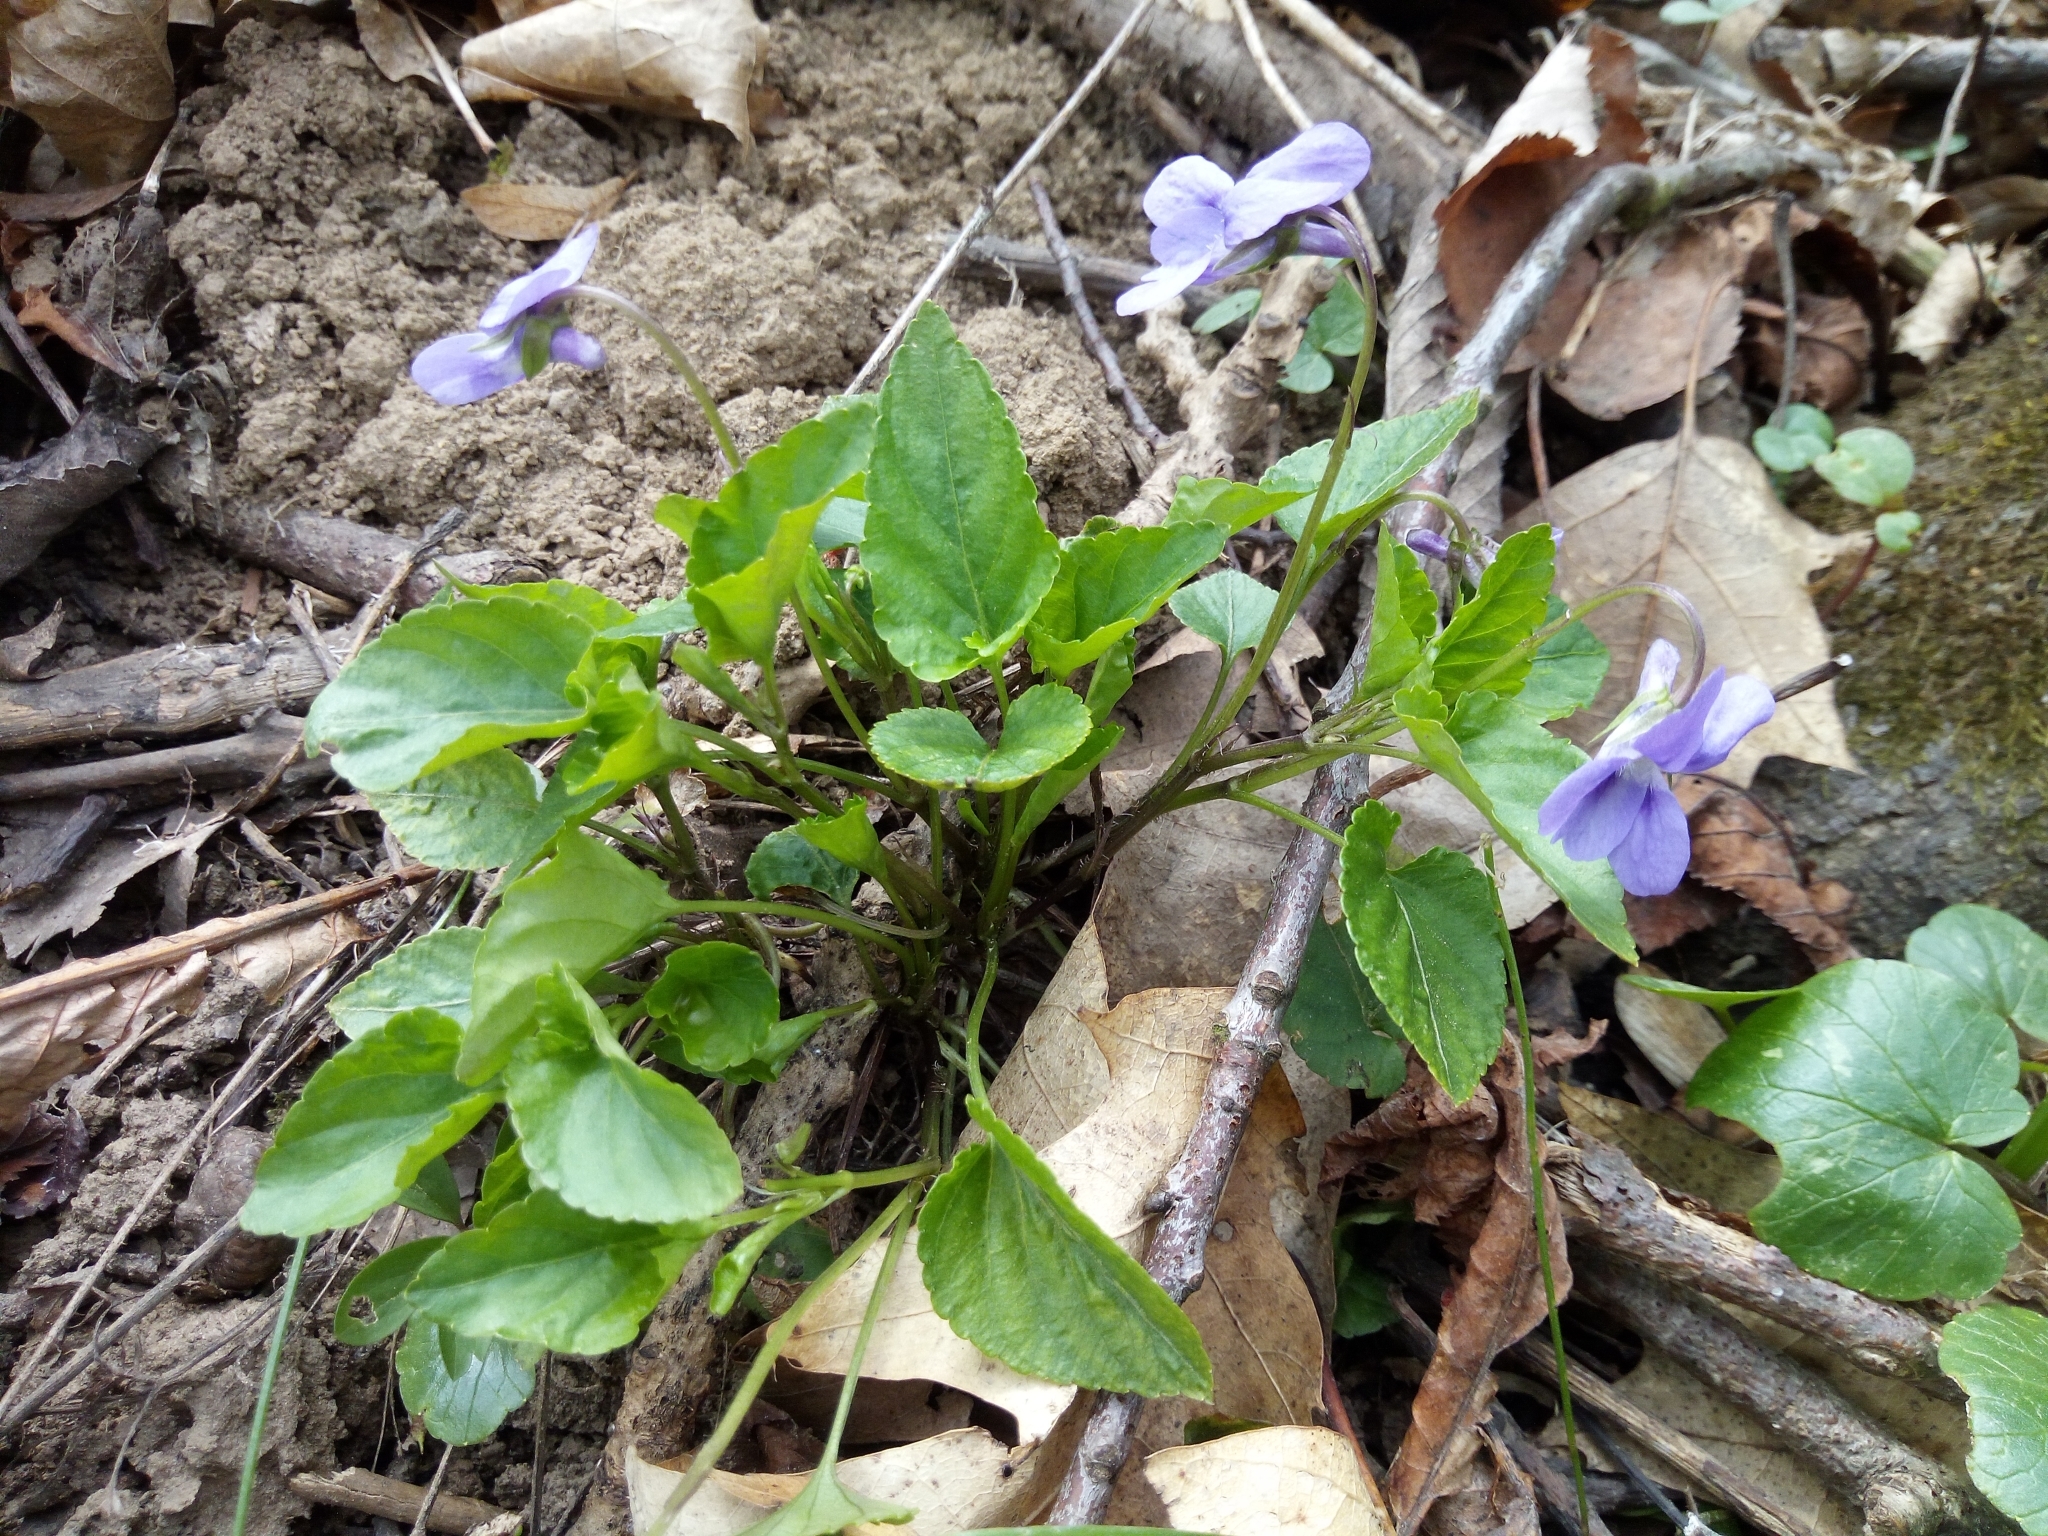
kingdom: Plantae
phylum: Tracheophyta
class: Magnoliopsida
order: Malpighiales
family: Violaceae
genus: Viola
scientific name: Viola reichenbachiana
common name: Early dog-violet
